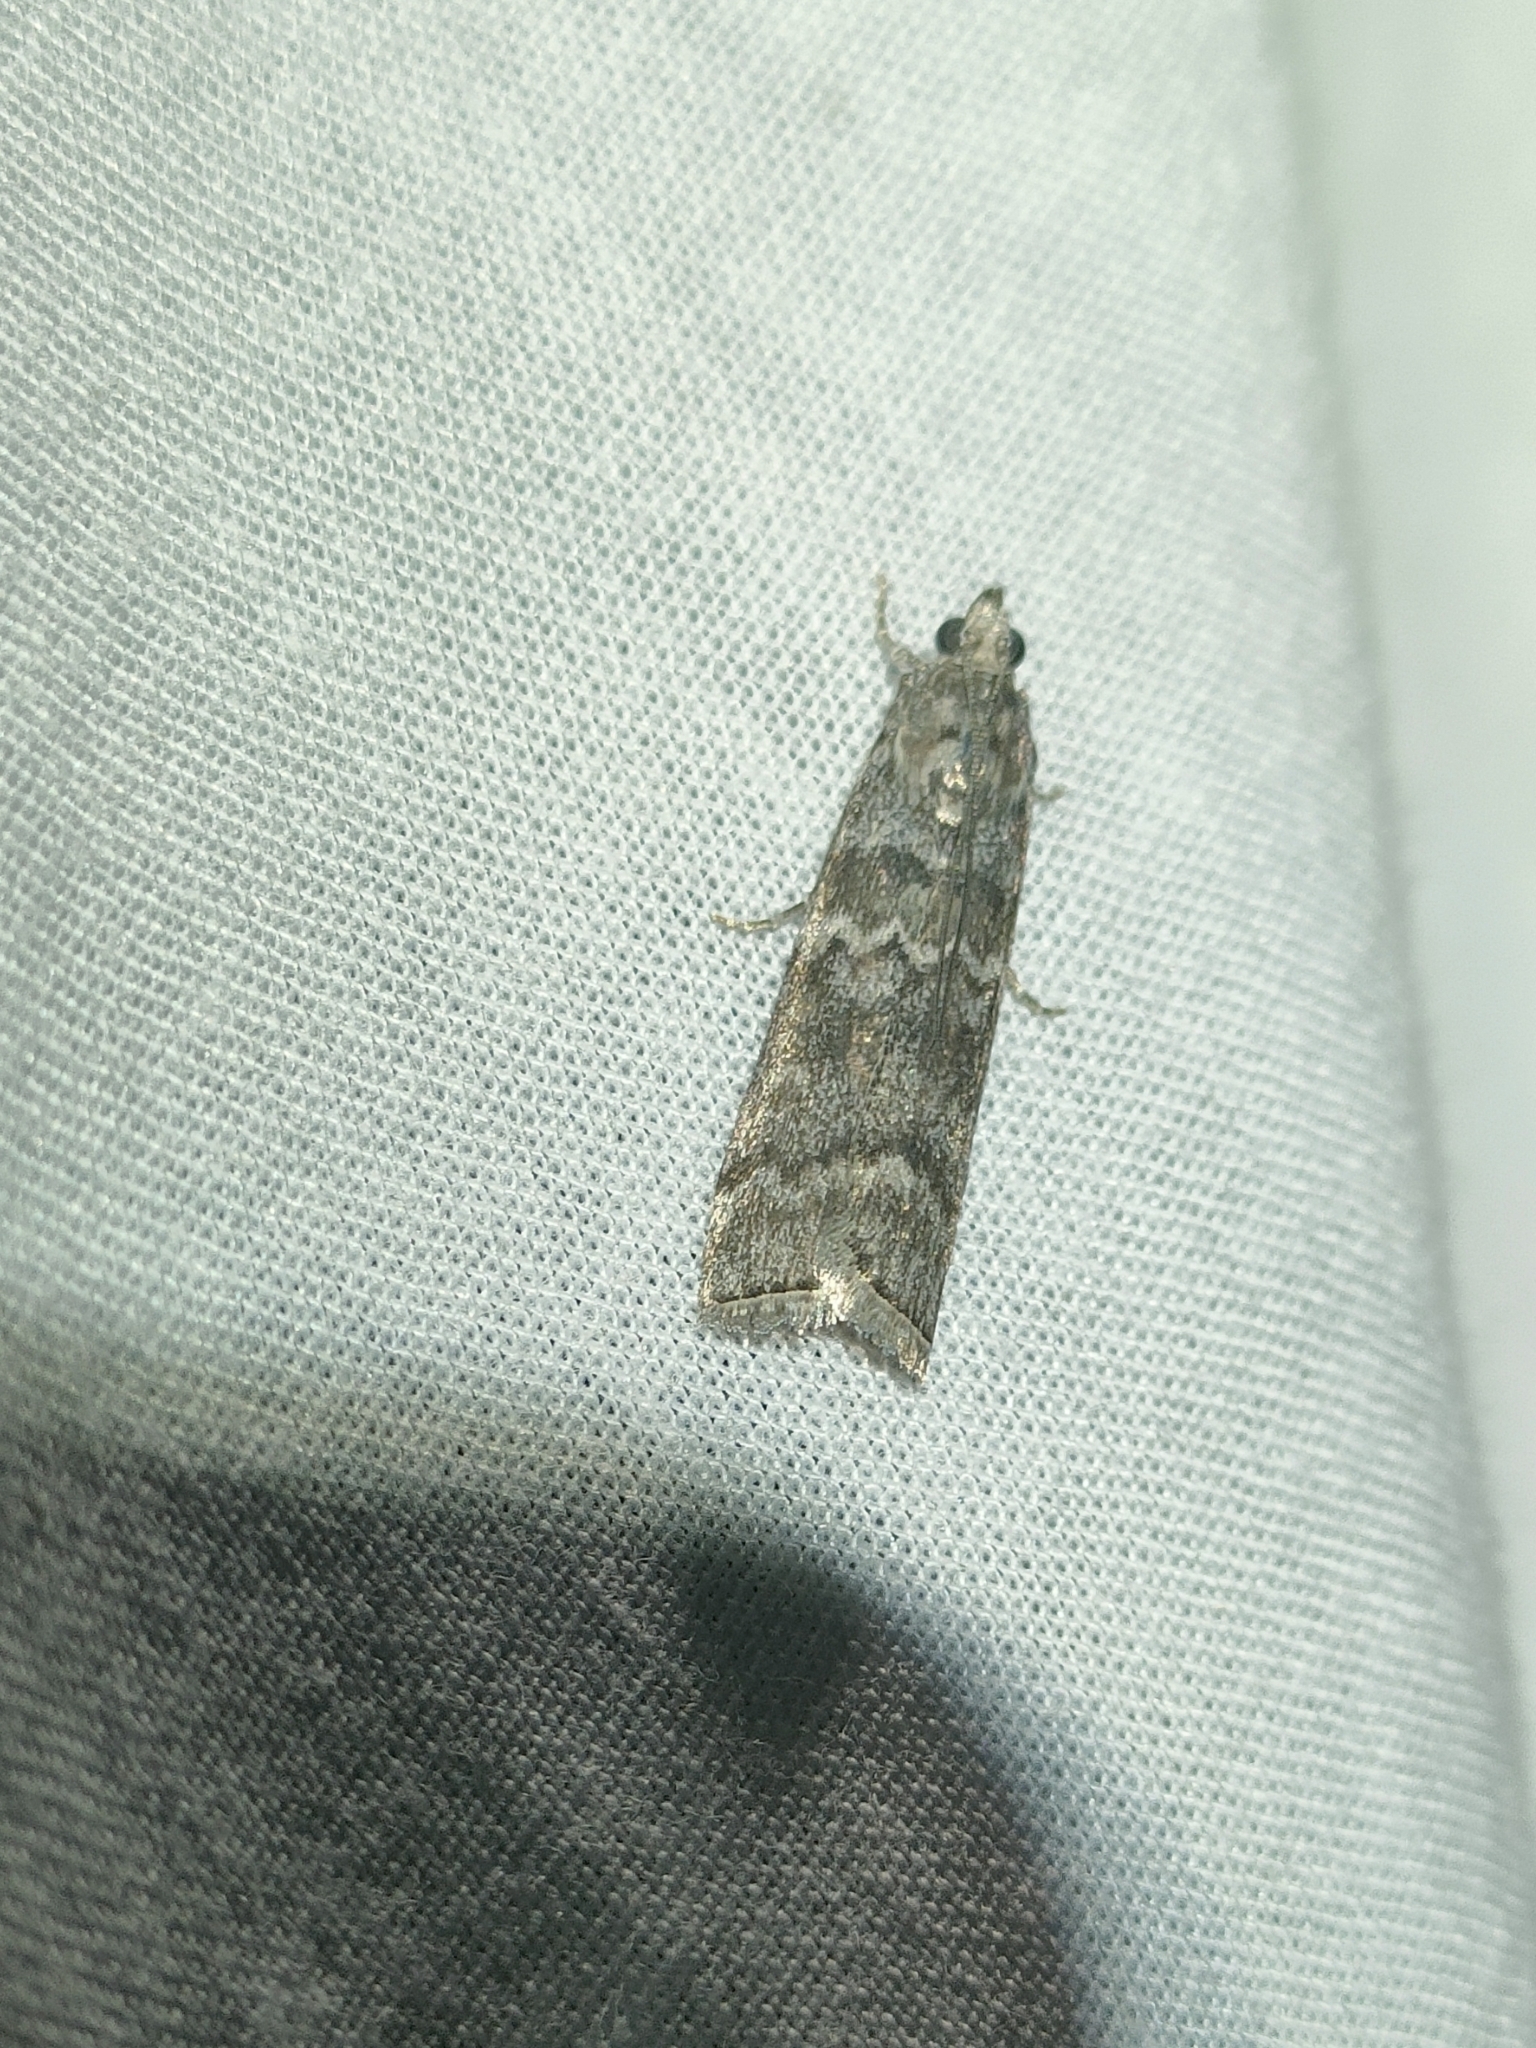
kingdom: Animalia
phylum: Arthropoda
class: Insecta
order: Lepidoptera
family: Pyralidae
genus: Dioryctria
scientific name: Dioryctria mutatella
